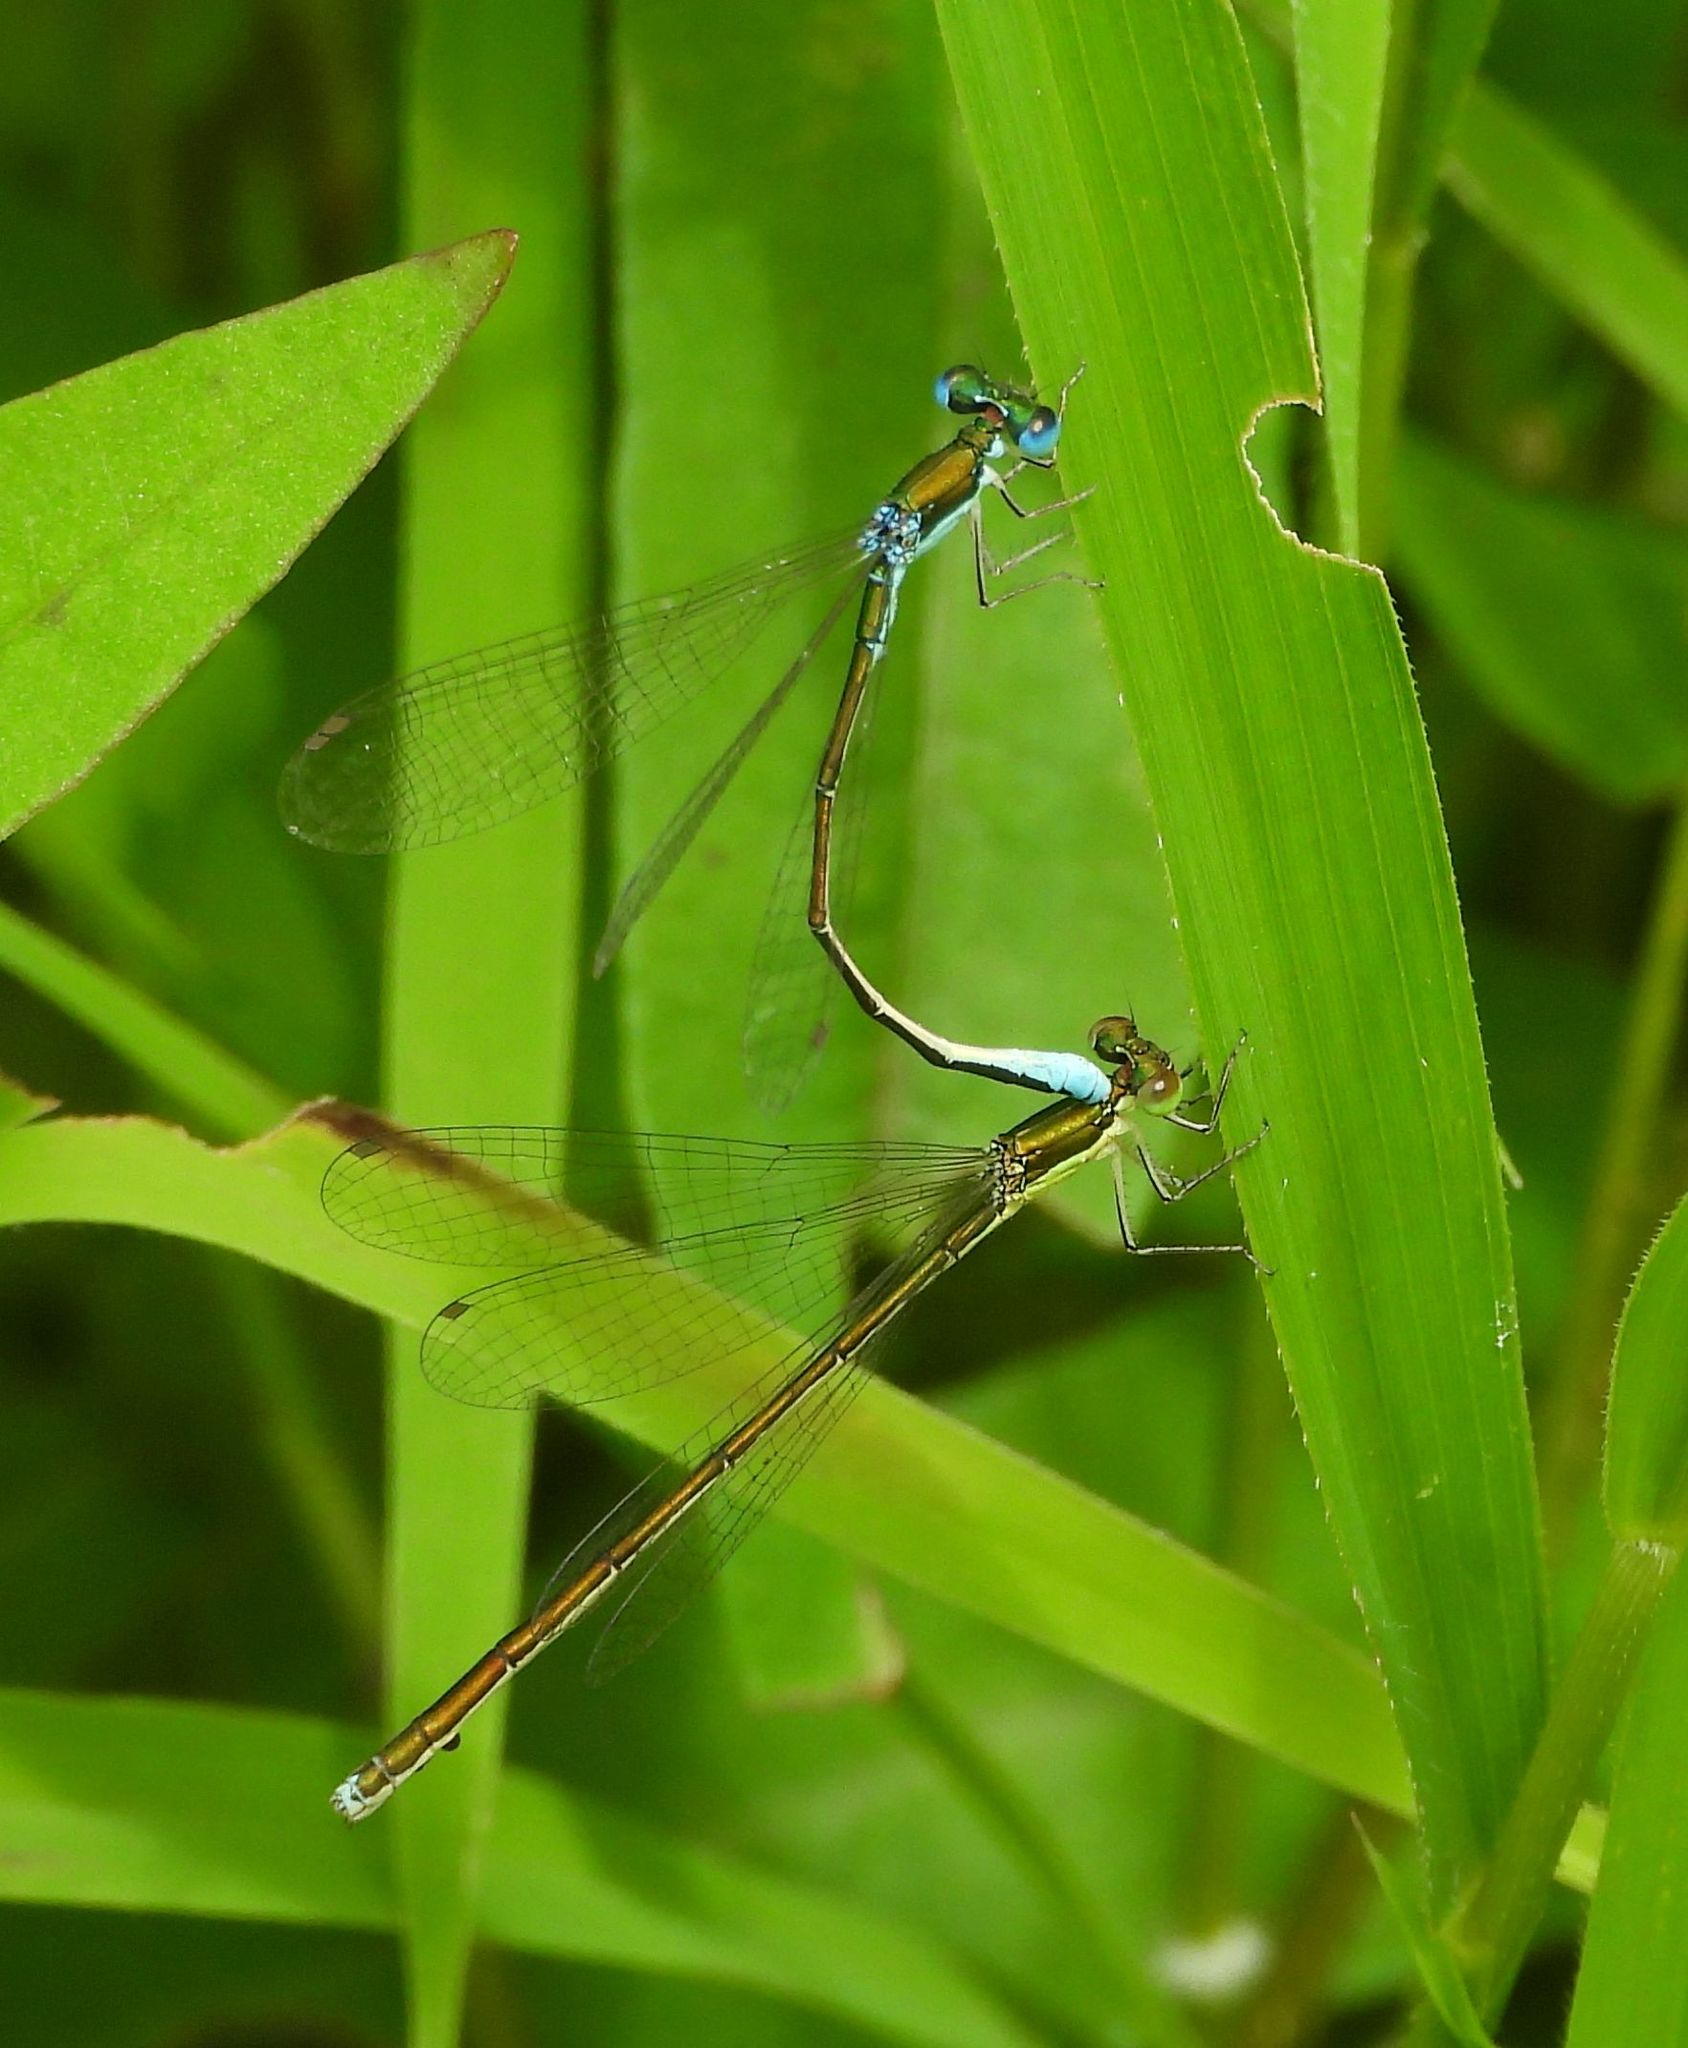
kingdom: Animalia
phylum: Arthropoda
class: Insecta
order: Odonata
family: Coenagrionidae
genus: Nehalennia
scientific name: Nehalennia irene
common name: Sedge sprite
